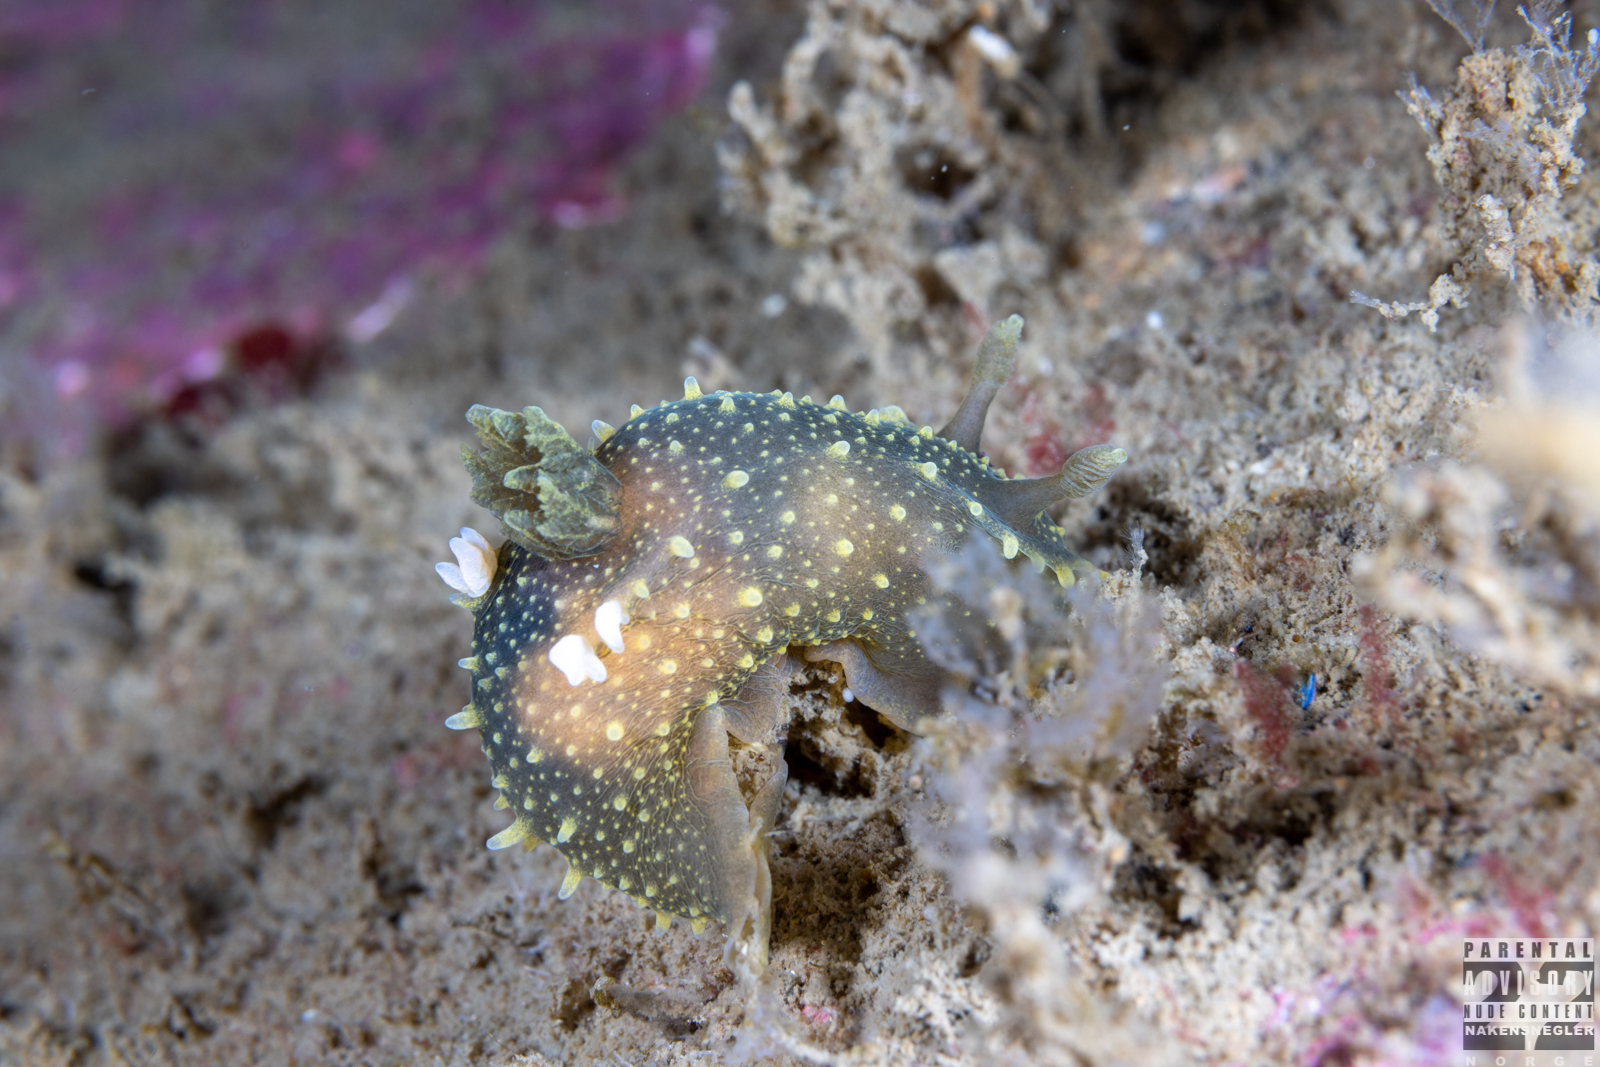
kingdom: Animalia
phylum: Mollusca
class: Gastropoda
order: Nudibranchia
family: Polyceridae
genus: Palio
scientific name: Palio dubia
